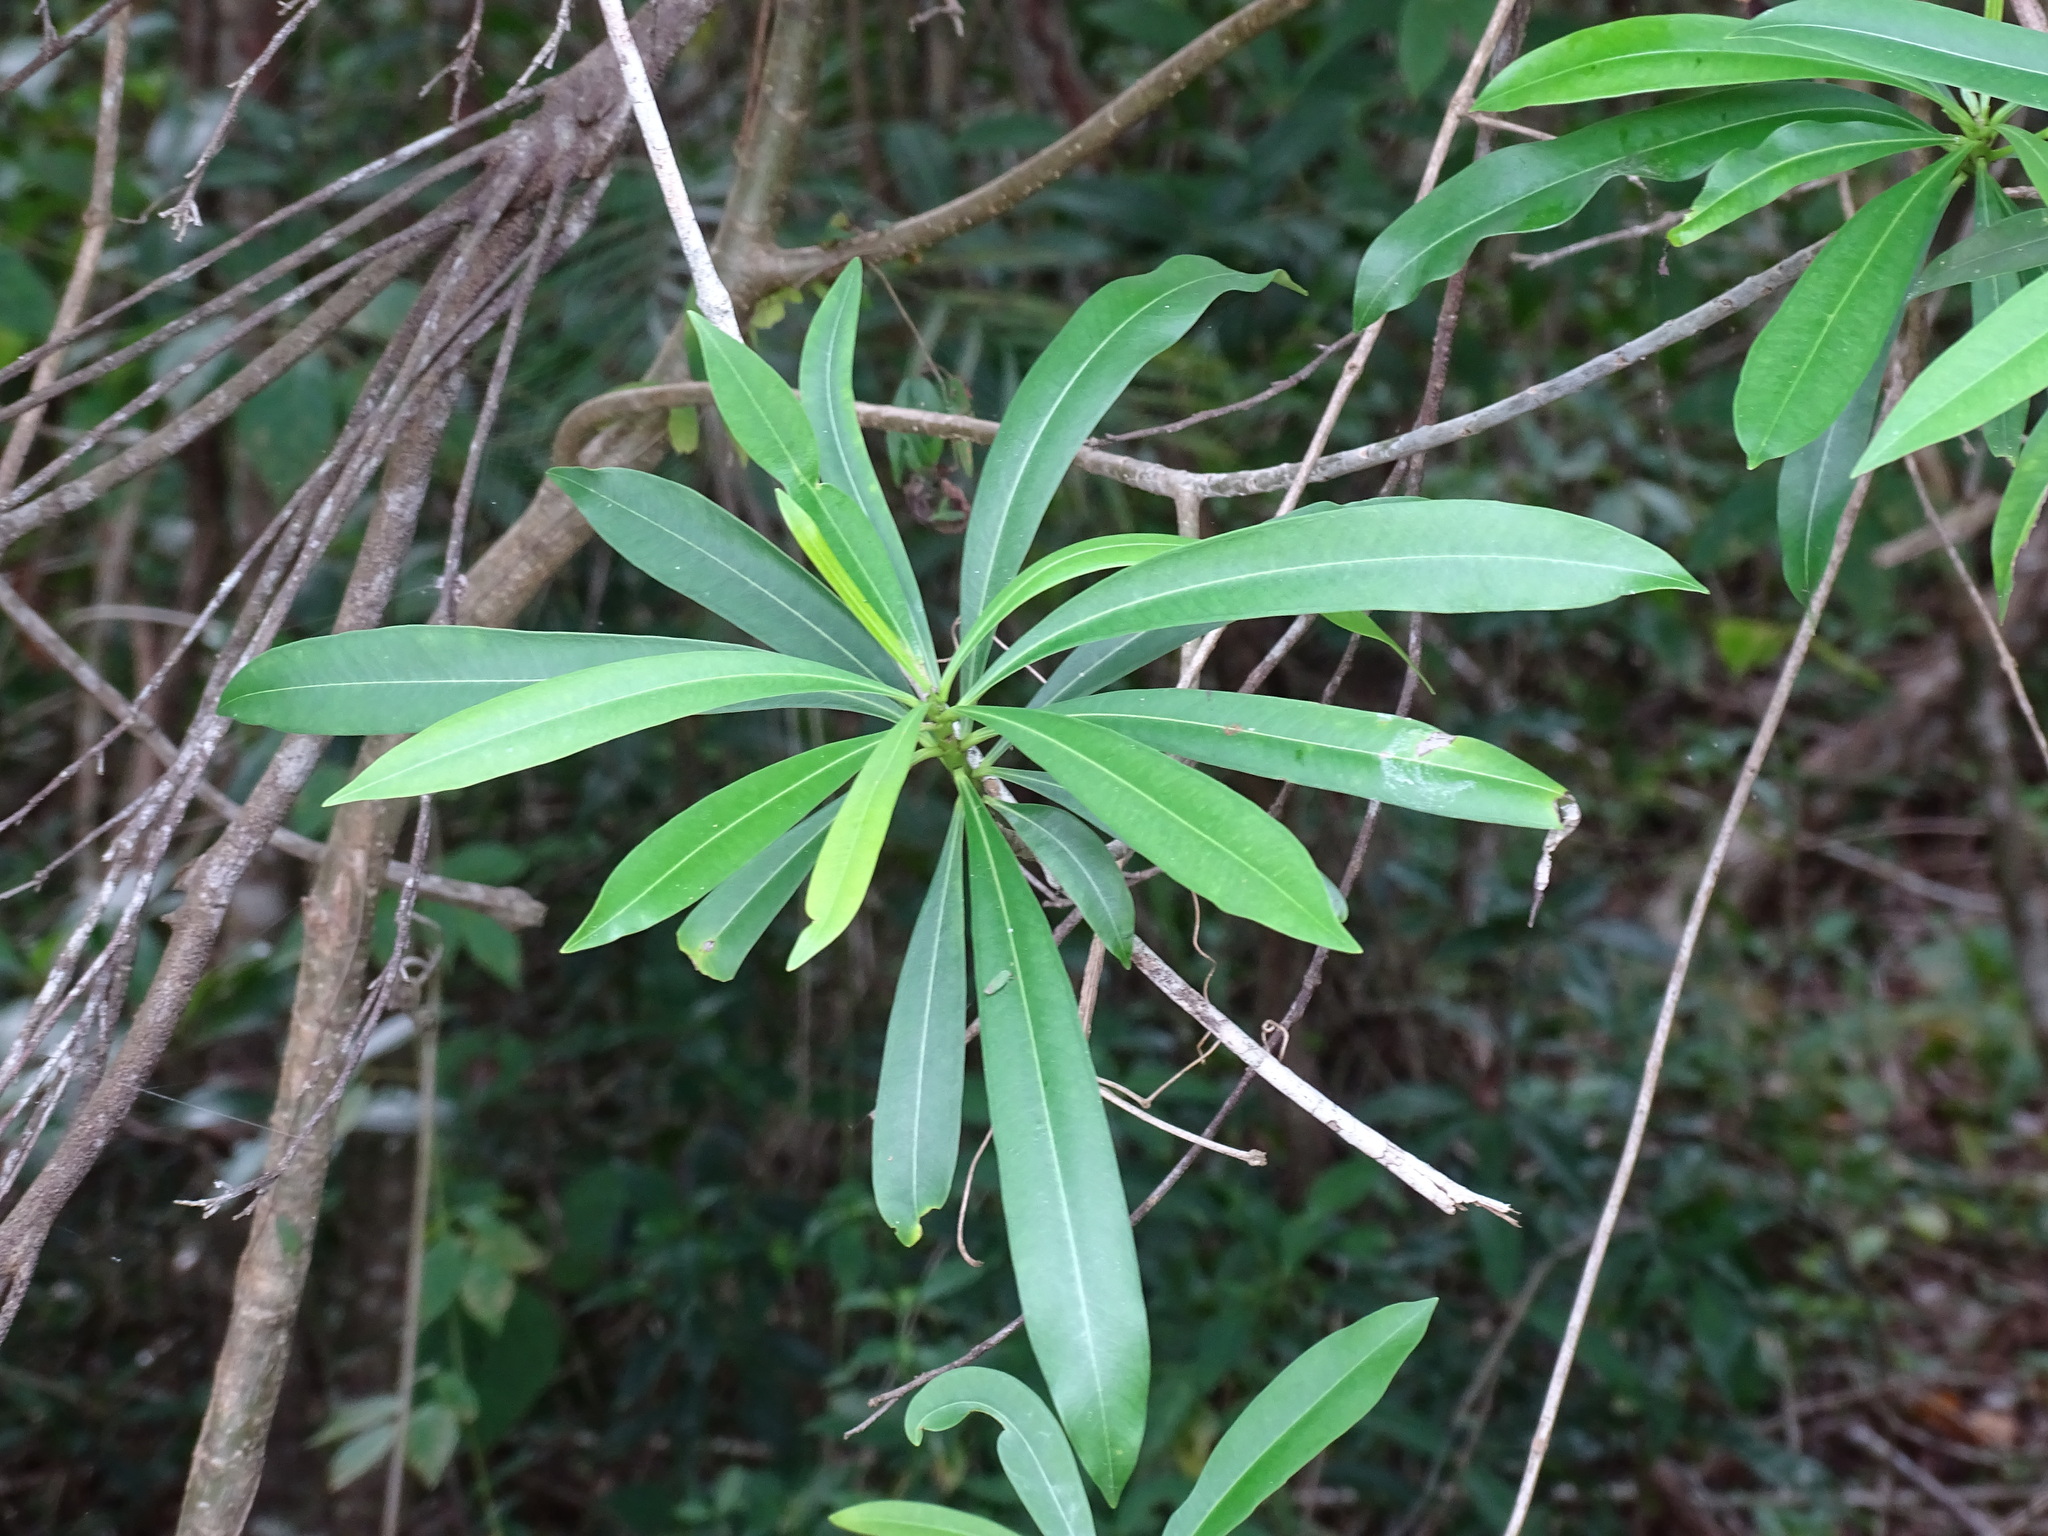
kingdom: Plantae
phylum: Tracheophyta
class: Magnoliopsida
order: Gentianales
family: Apocynaceae
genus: Cascabela
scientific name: Cascabela gaumeri
